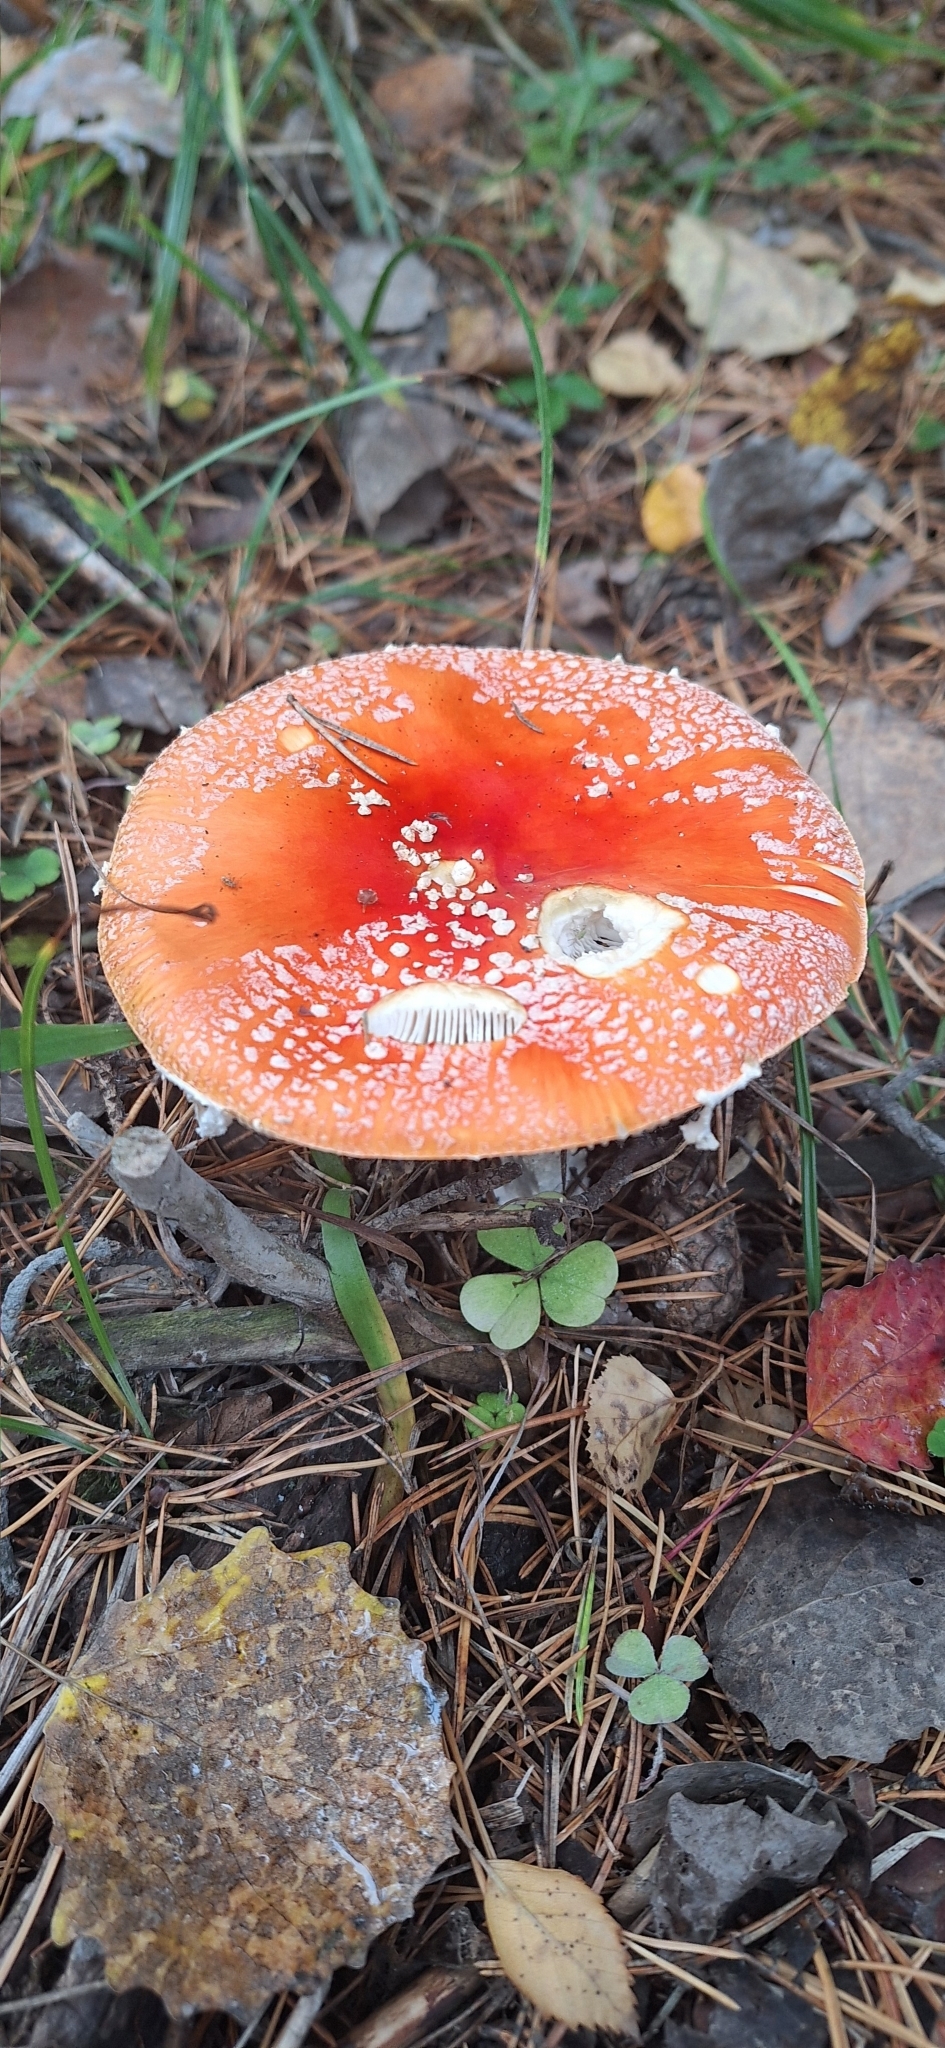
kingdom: Fungi
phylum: Basidiomycota
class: Agaricomycetes
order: Agaricales
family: Amanitaceae
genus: Amanita
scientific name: Amanita muscaria
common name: Fly agaric
